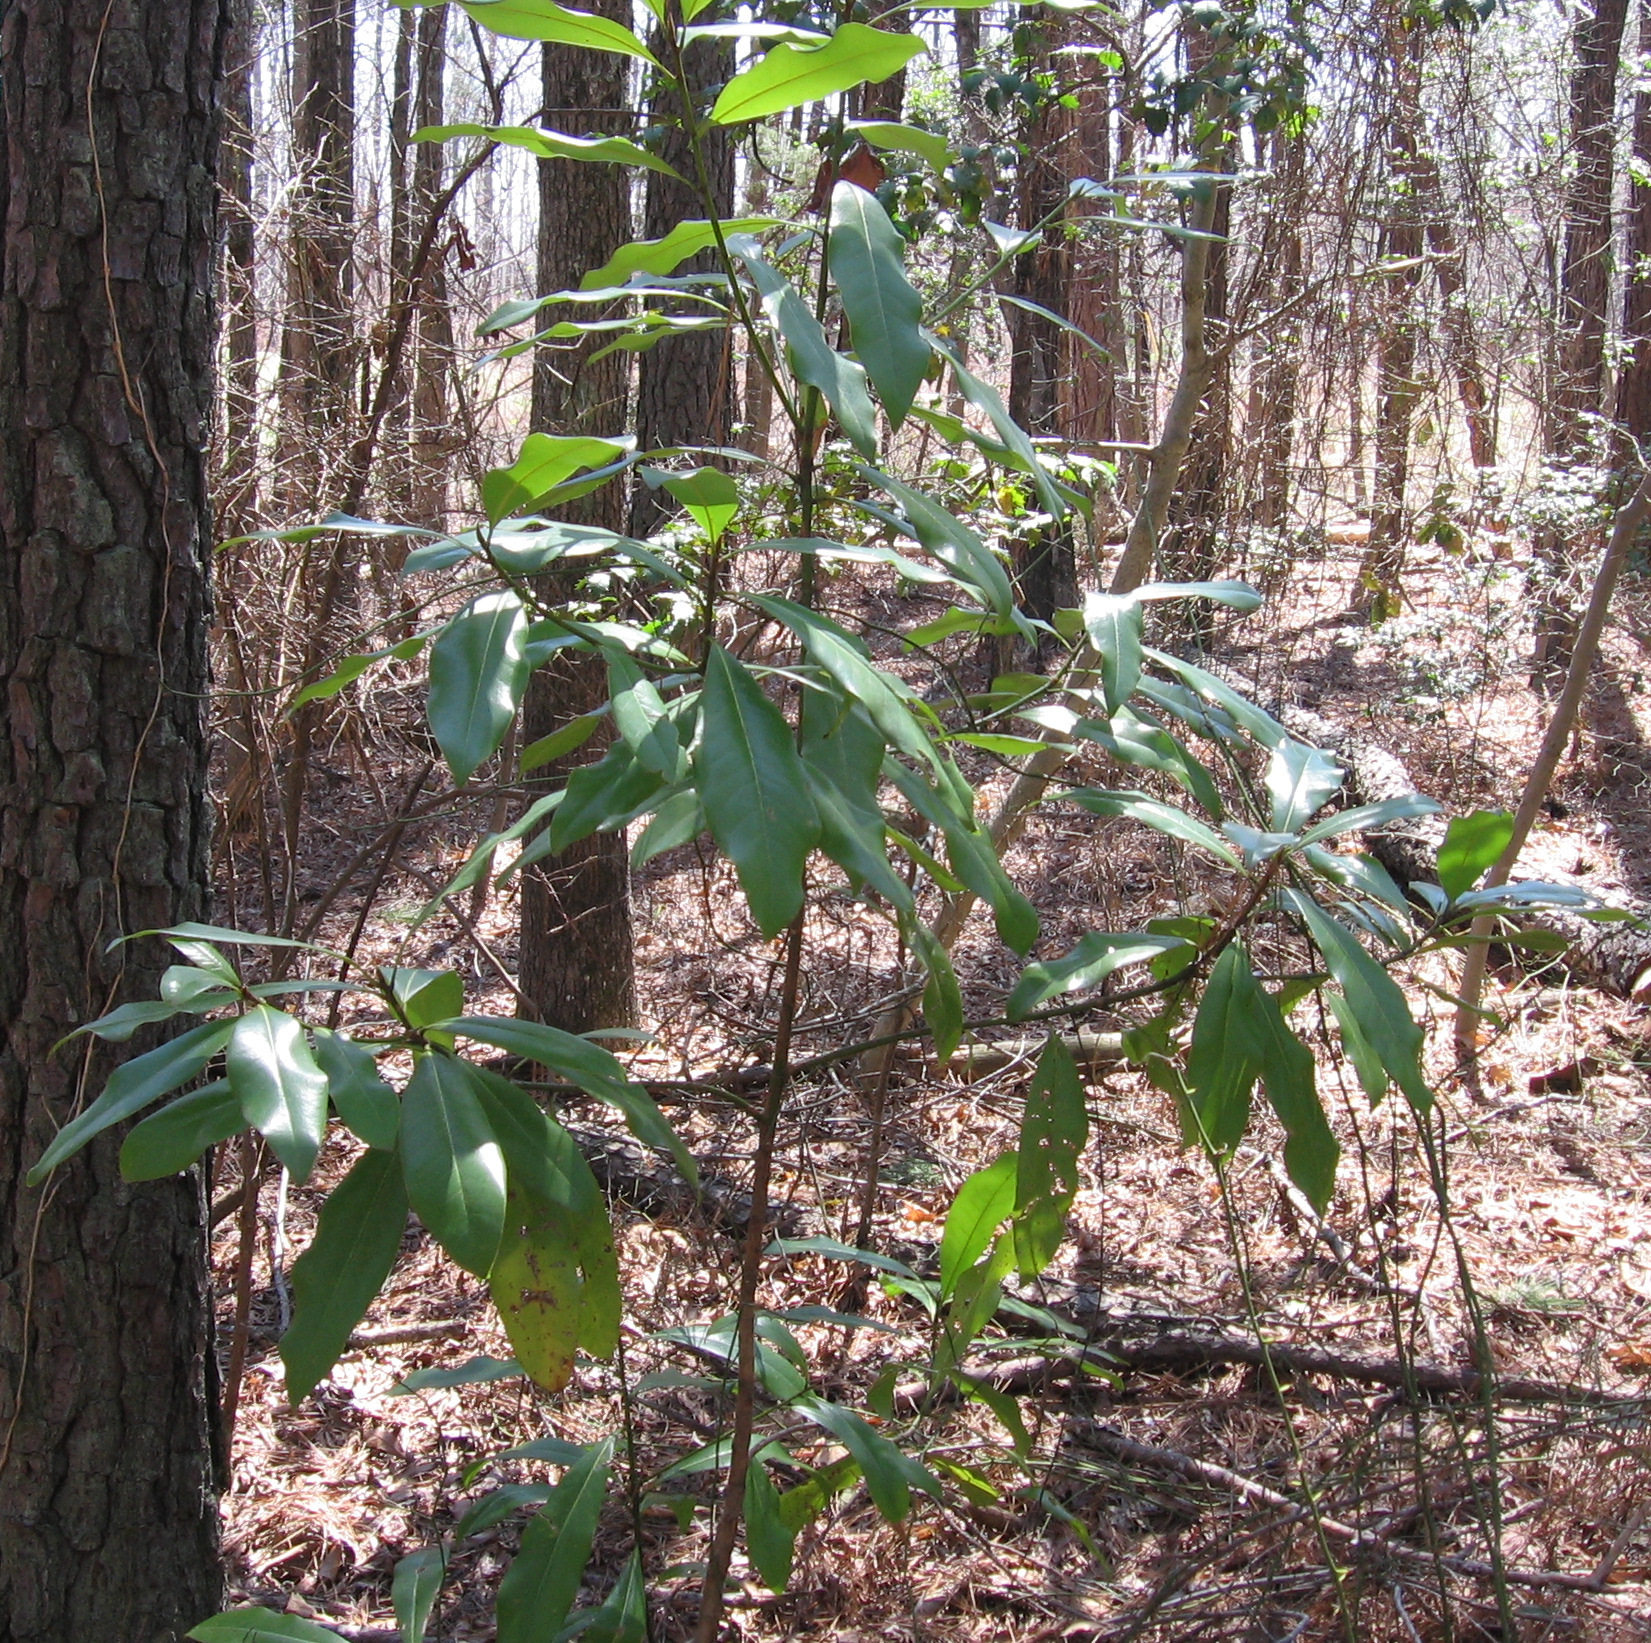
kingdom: Plantae
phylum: Tracheophyta
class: Magnoliopsida
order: Magnoliales
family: Magnoliaceae
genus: Magnolia
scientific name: Magnolia grandiflora
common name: Southern magnolia
